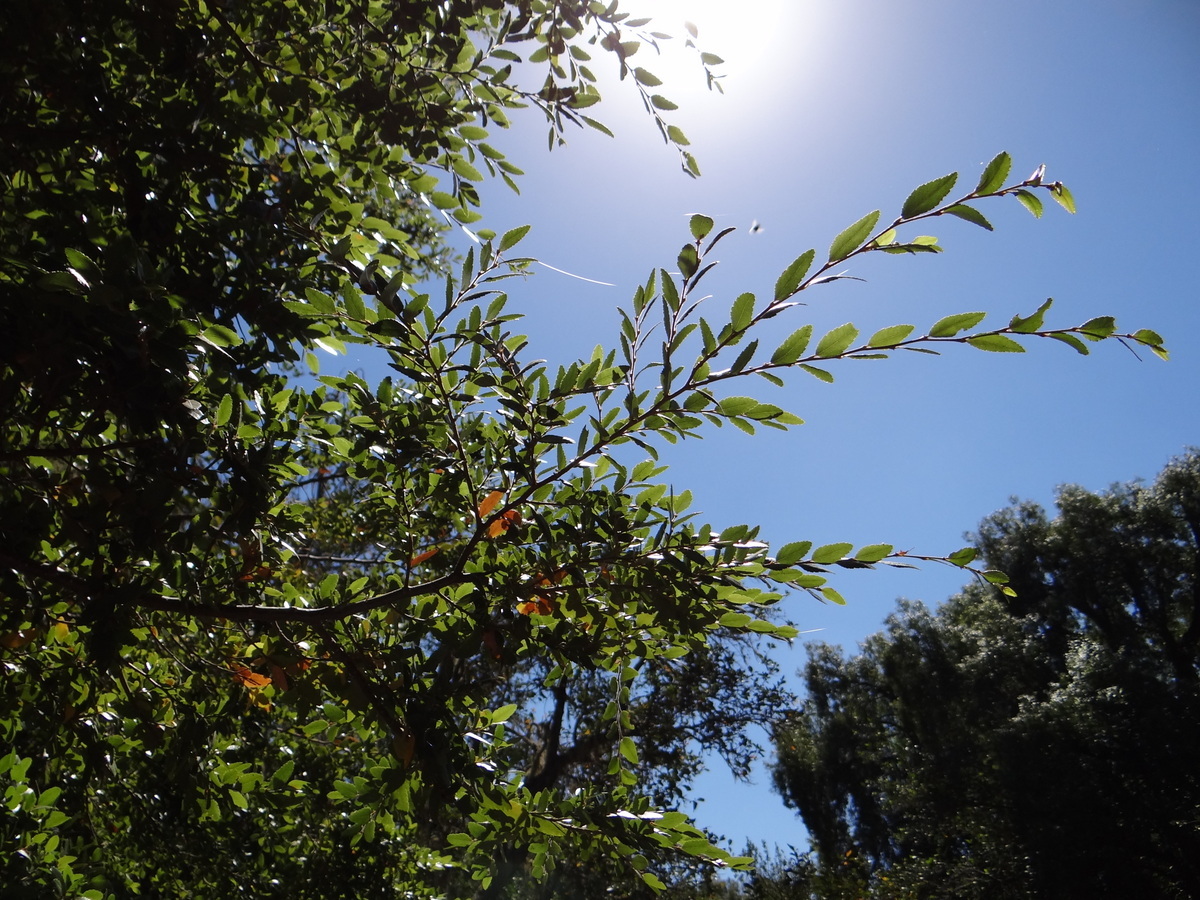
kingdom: Plantae
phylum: Tracheophyta
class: Magnoliopsida
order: Fagales
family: Nothofagaceae
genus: Nothofagus
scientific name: Nothofagus dombeyi
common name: Coigue
